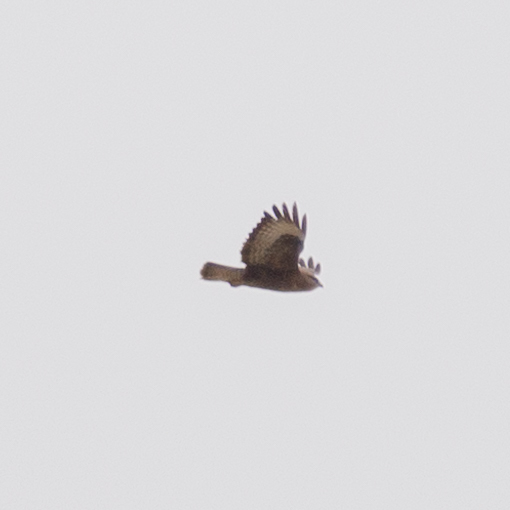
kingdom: Animalia
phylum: Chordata
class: Aves
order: Accipitriformes
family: Accipitridae
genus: Buteo
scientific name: Buteo buteo
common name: Common buzzard
